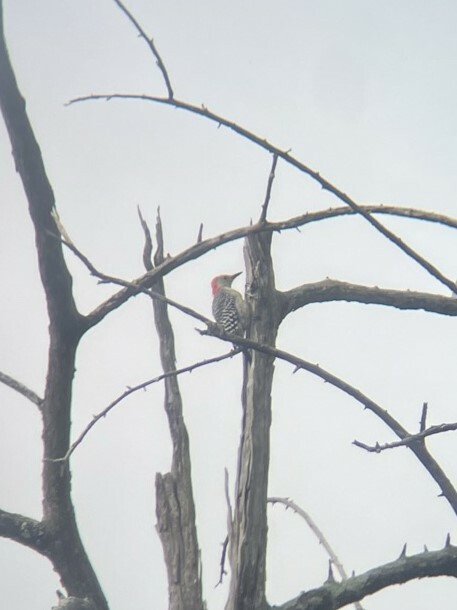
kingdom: Animalia
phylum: Chordata
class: Aves
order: Piciformes
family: Picidae
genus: Melanerpes
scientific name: Melanerpes carolinus
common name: Red-bellied woodpecker
